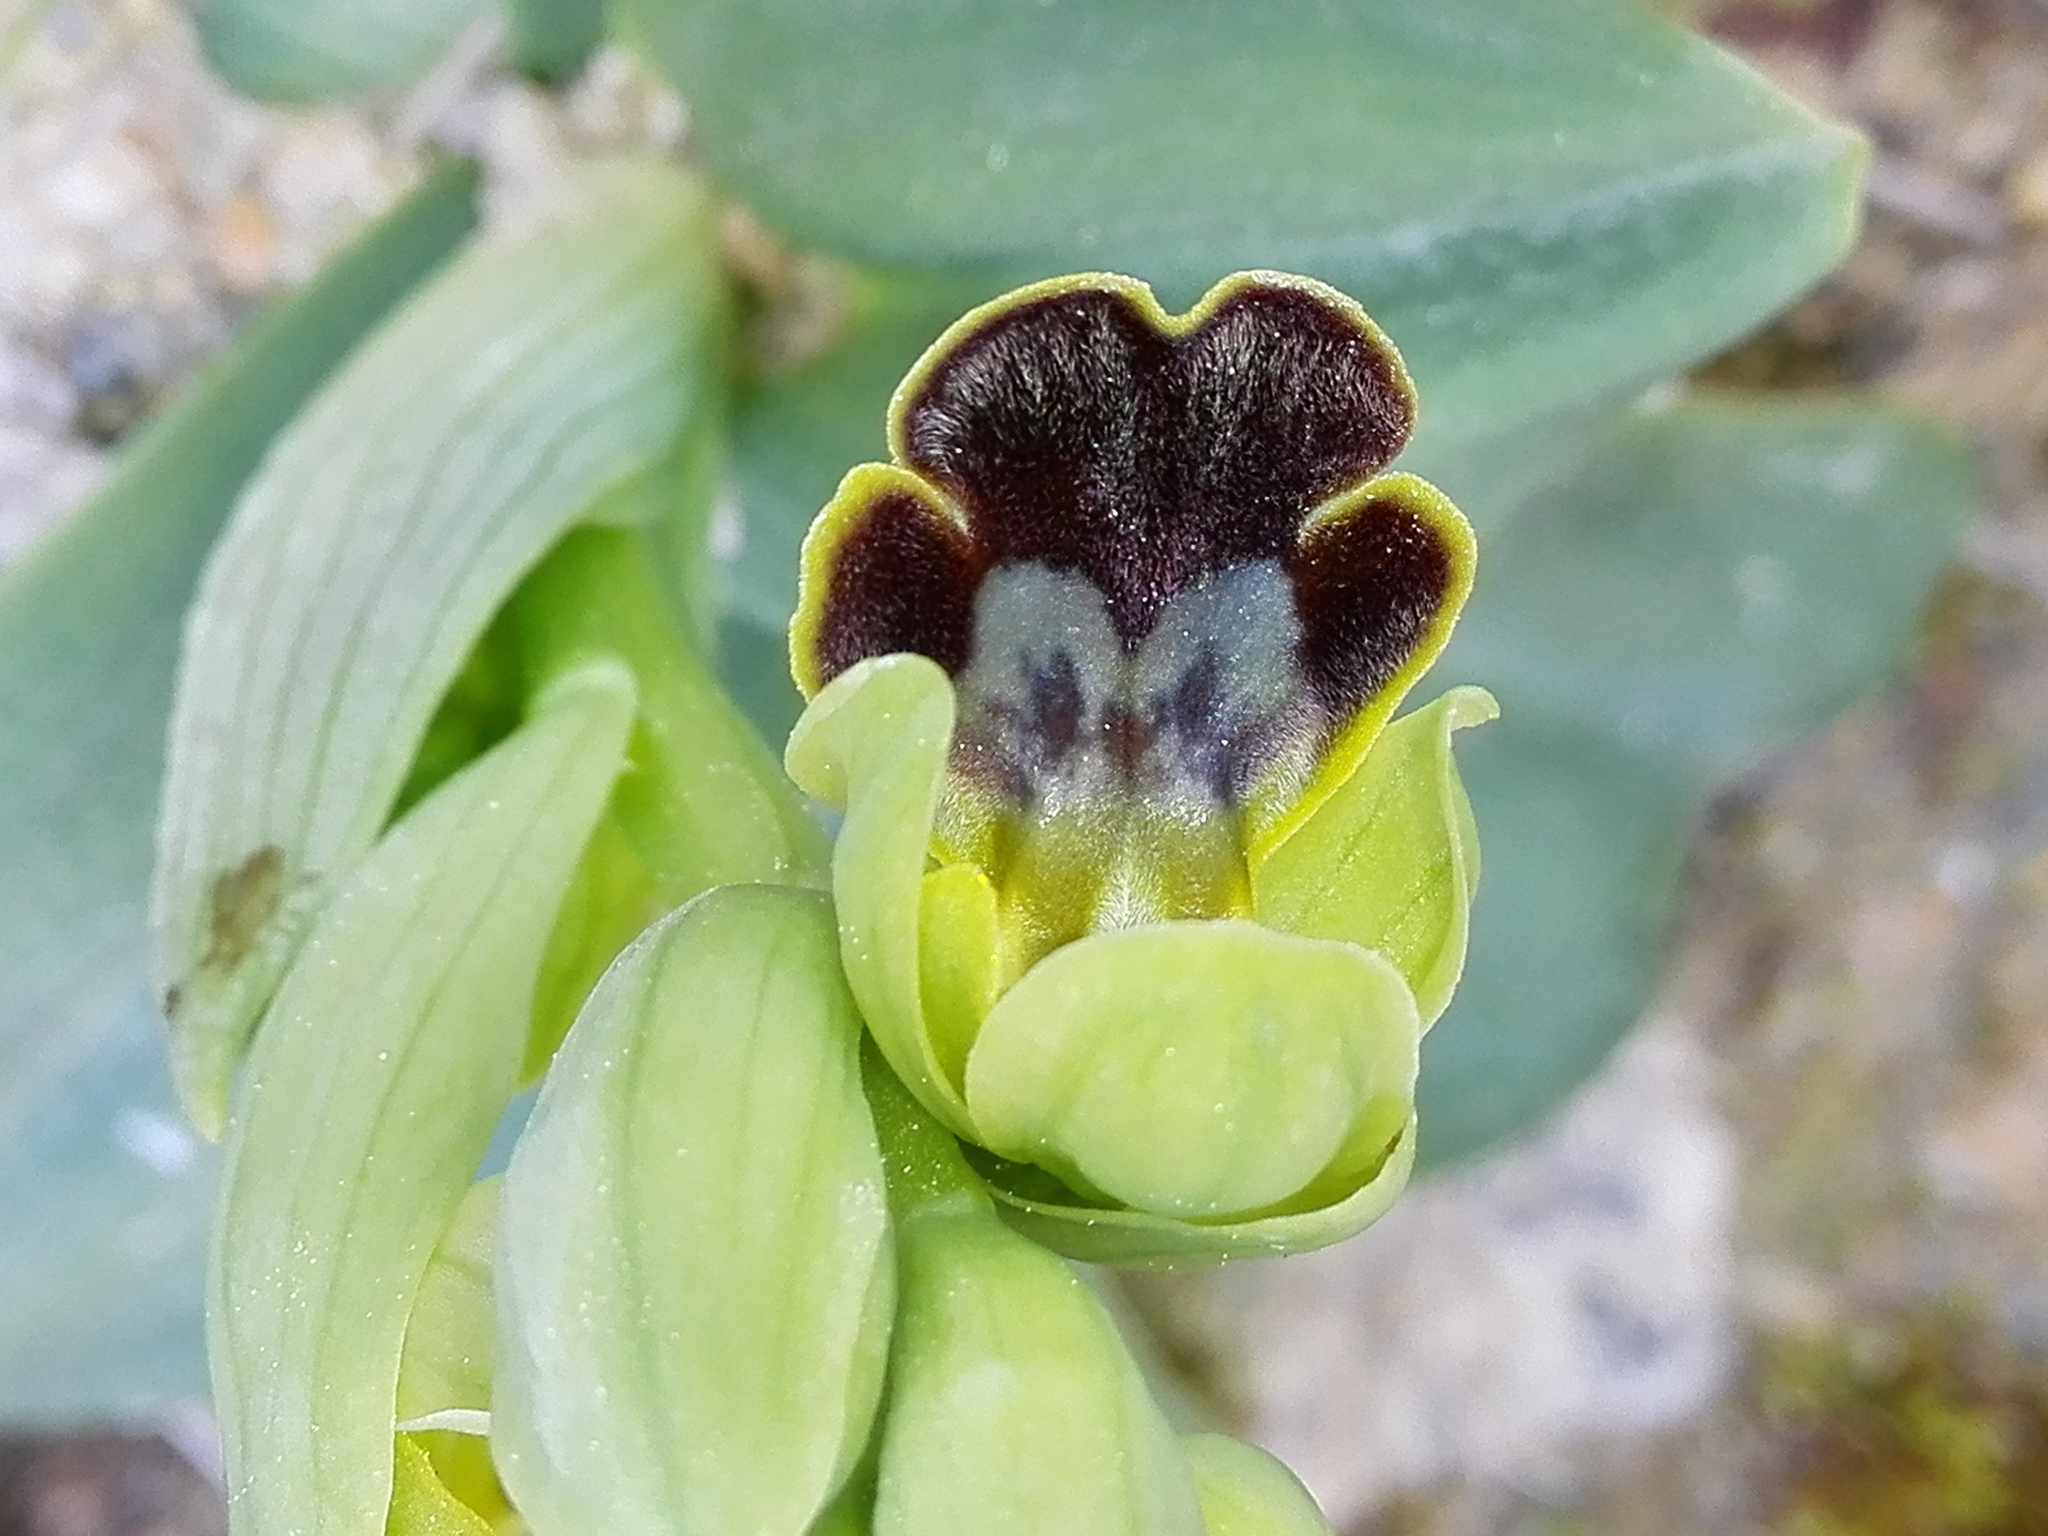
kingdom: Plantae
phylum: Tracheophyta
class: Liliopsida
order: Asparagales
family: Orchidaceae
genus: Ophrys
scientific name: Ophrys fusca
